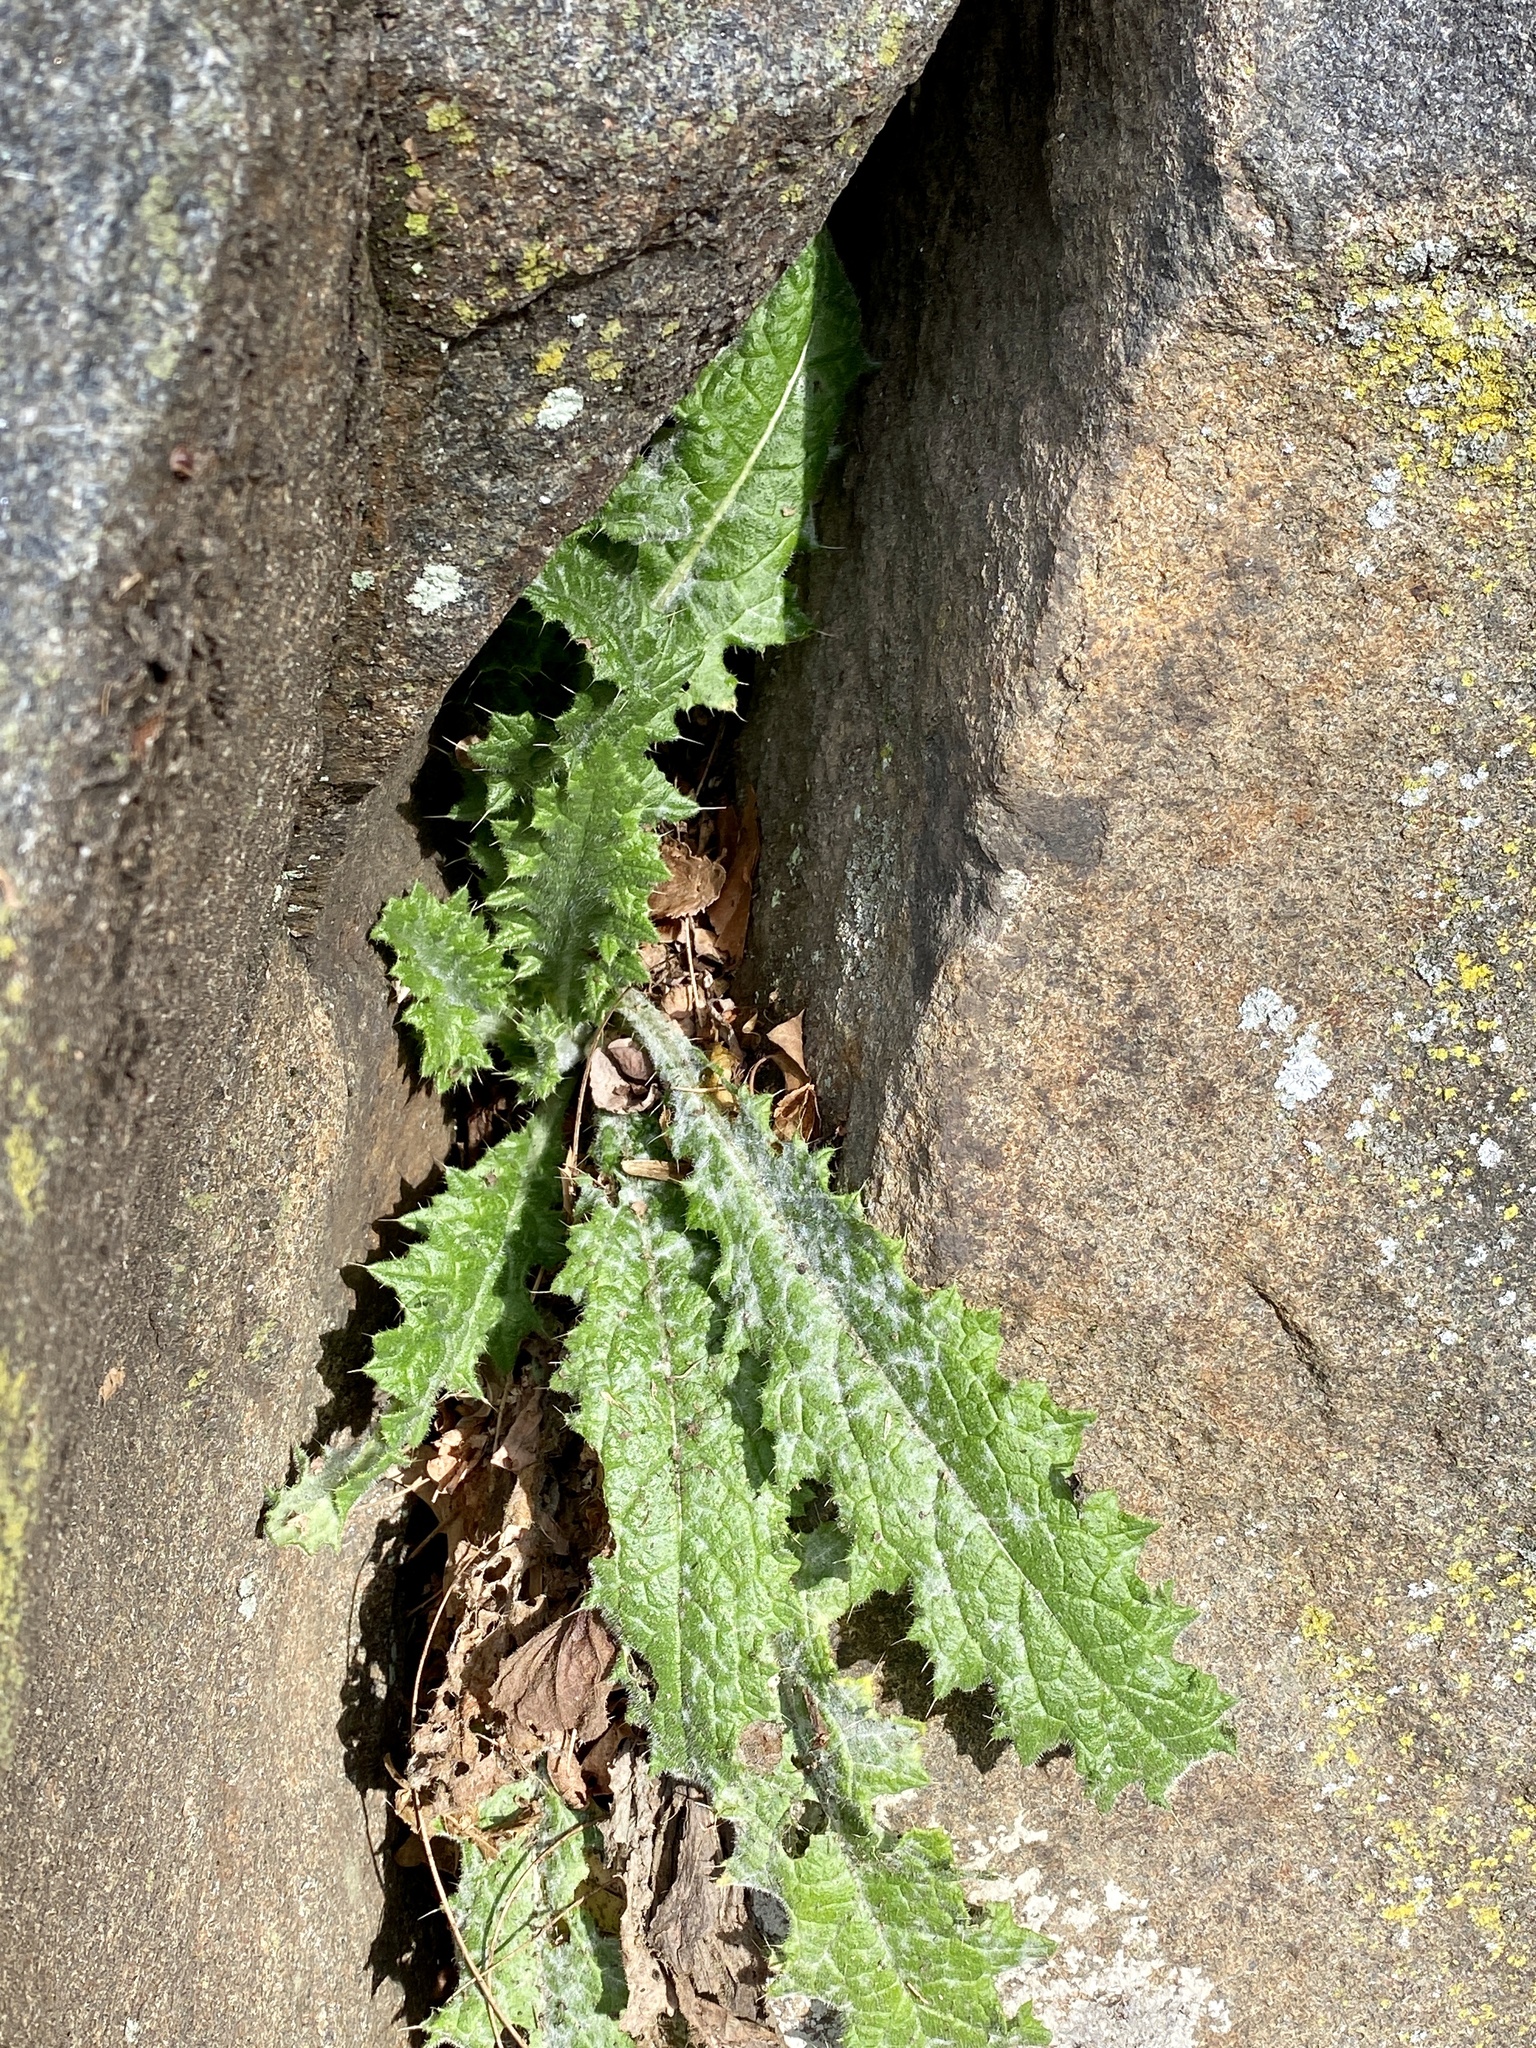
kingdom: Plantae
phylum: Tracheophyta
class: Magnoliopsida
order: Asterales
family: Asteraceae
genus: Cirsium
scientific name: Cirsium vulgare
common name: Bull thistle
